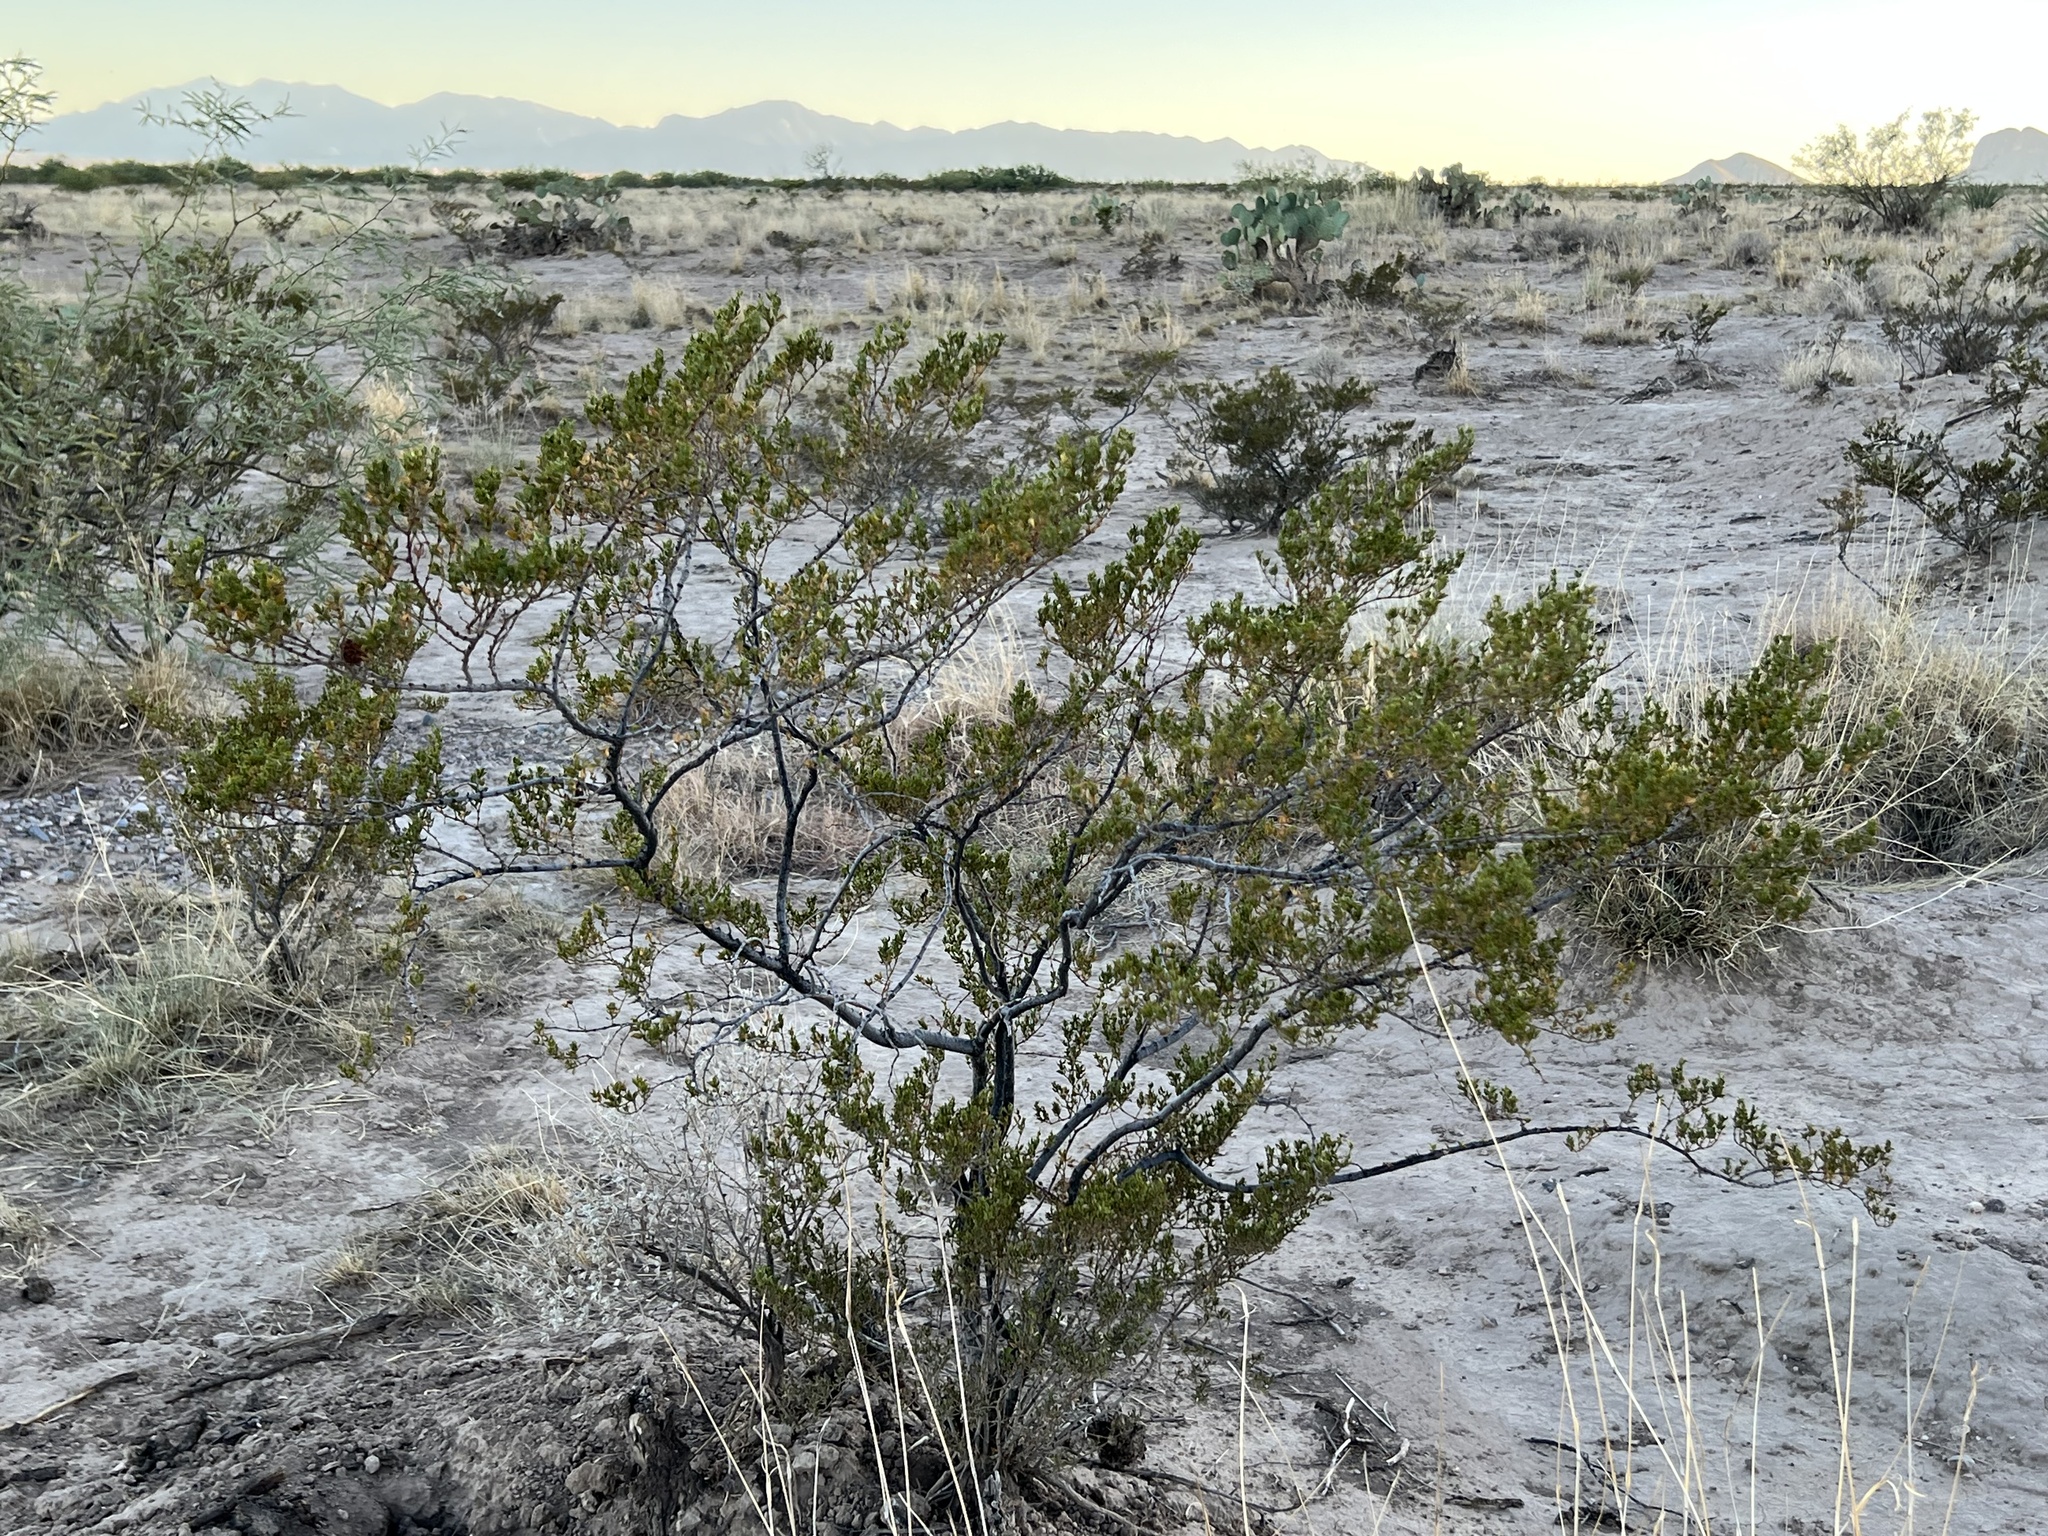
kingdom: Plantae
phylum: Tracheophyta
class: Magnoliopsida
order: Zygophyllales
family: Zygophyllaceae
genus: Larrea
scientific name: Larrea tridentata
